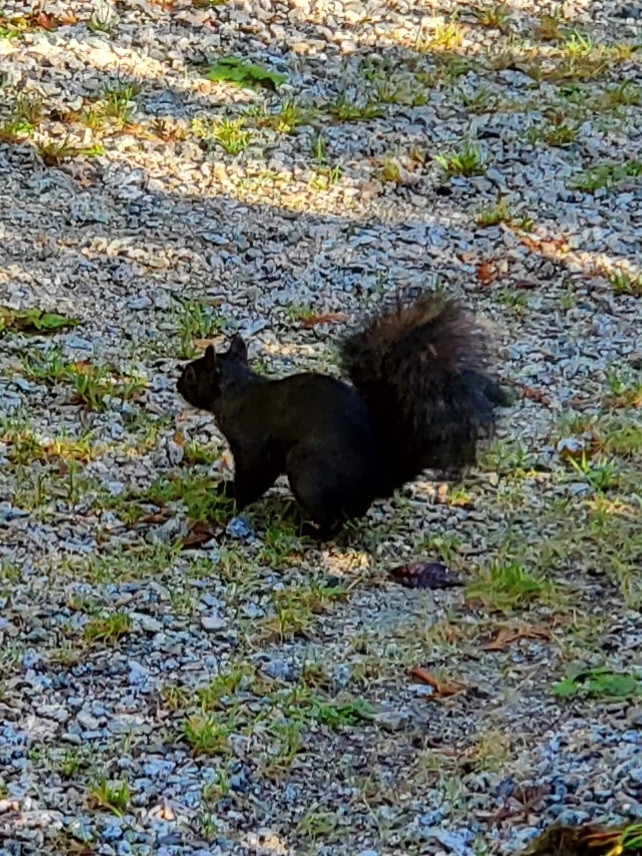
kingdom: Animalia
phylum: Chordata
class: Mammalia
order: Rodentia
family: Sciuridae
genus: Sciurus
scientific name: Sciurus carolinensis
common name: Eastern gray squirrel
